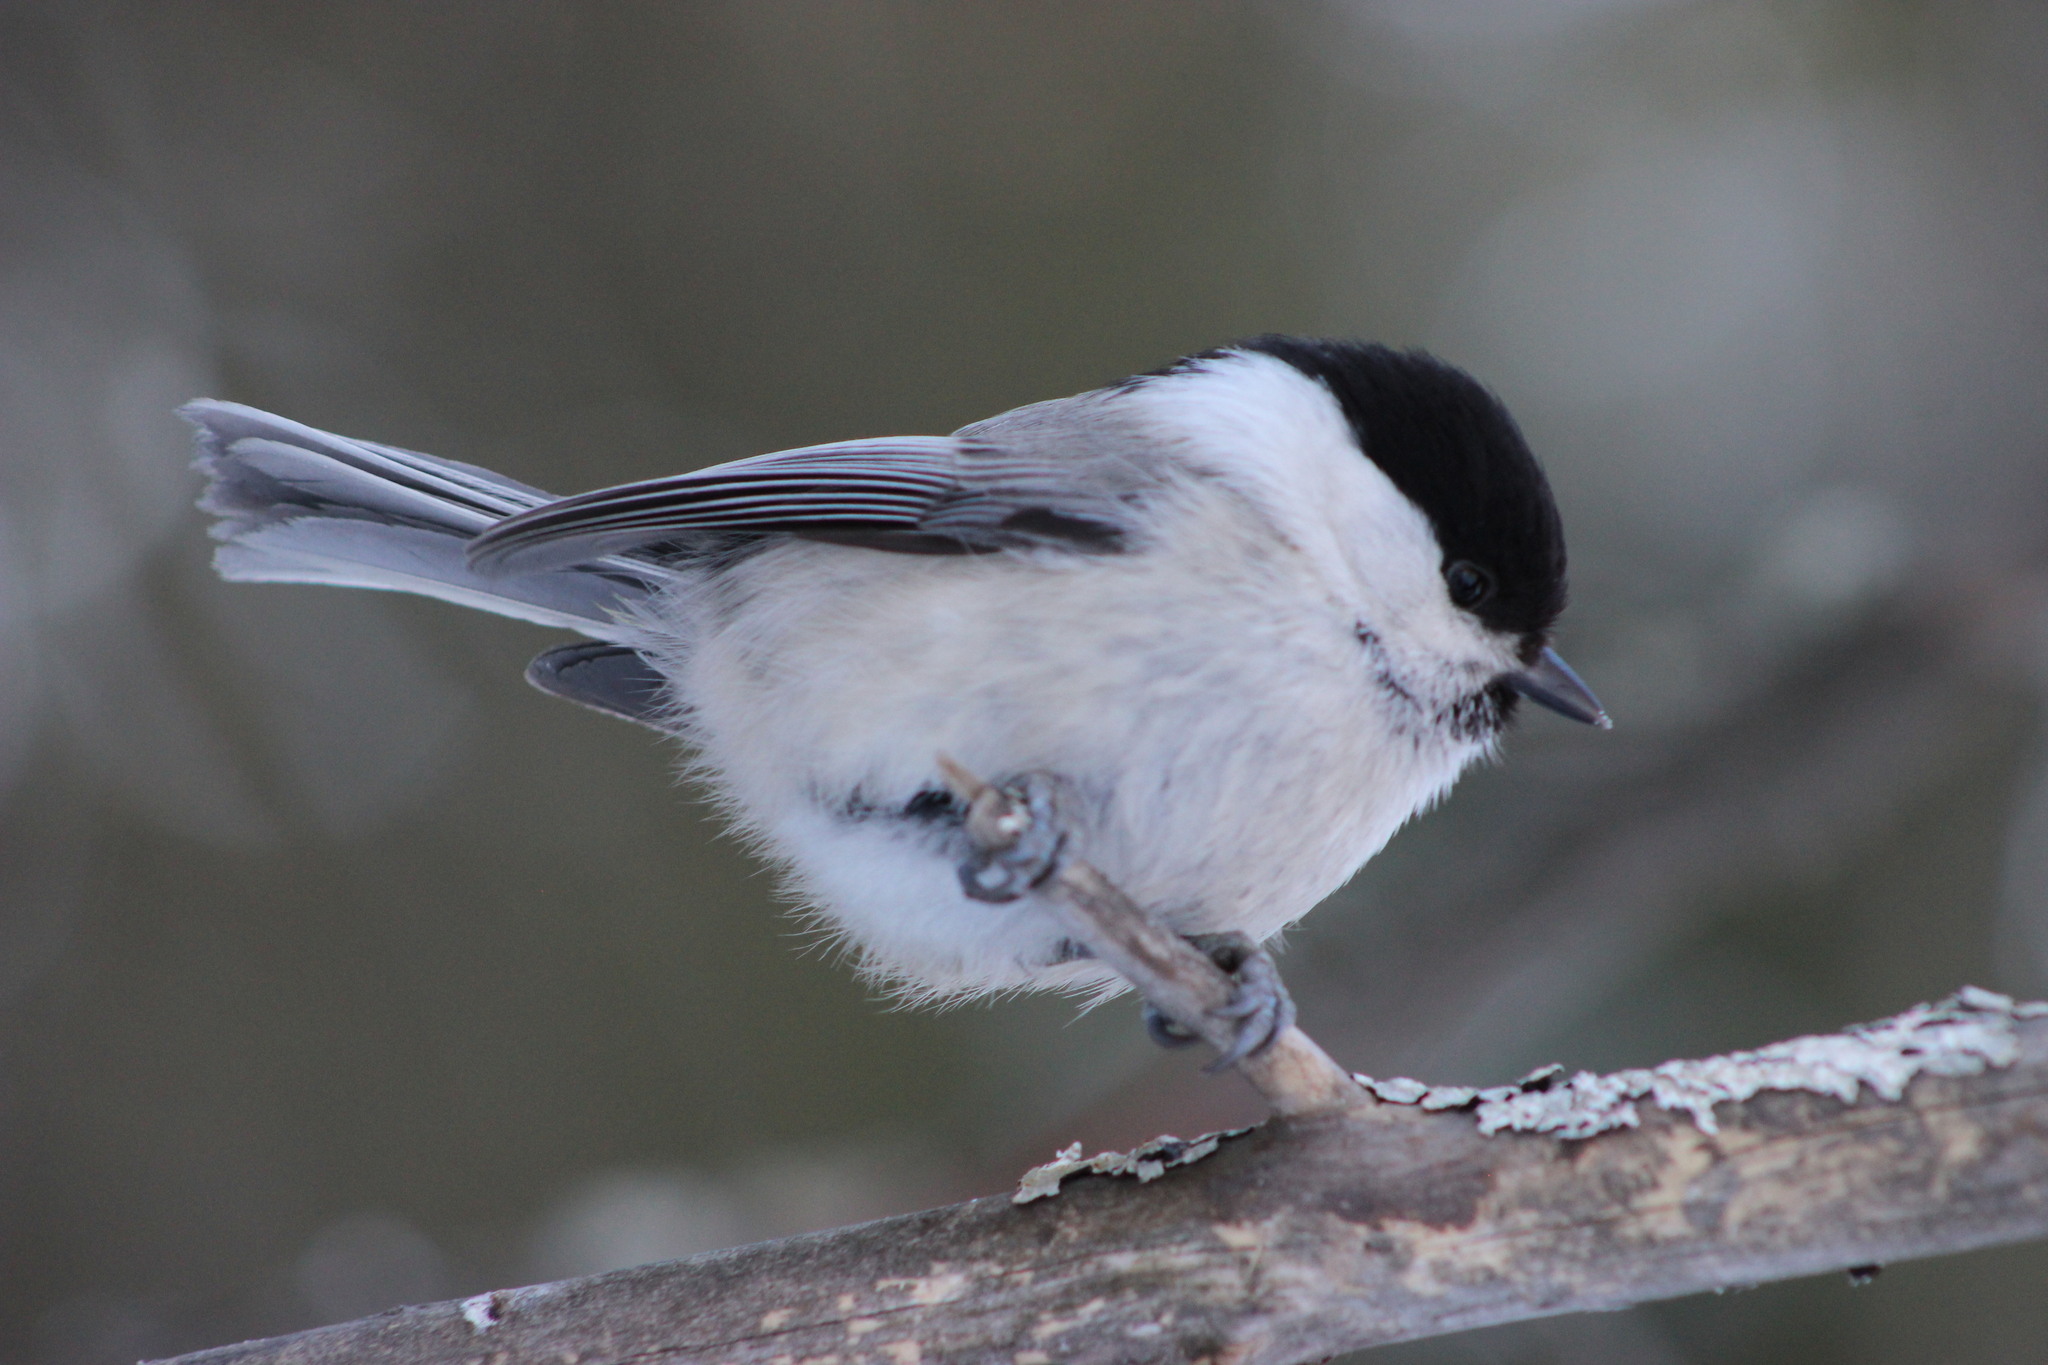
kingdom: Animalia
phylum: Chordata
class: Aves
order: Passeriformes
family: Paridae
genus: Poecile
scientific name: Poecile montanus
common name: Willow tit
